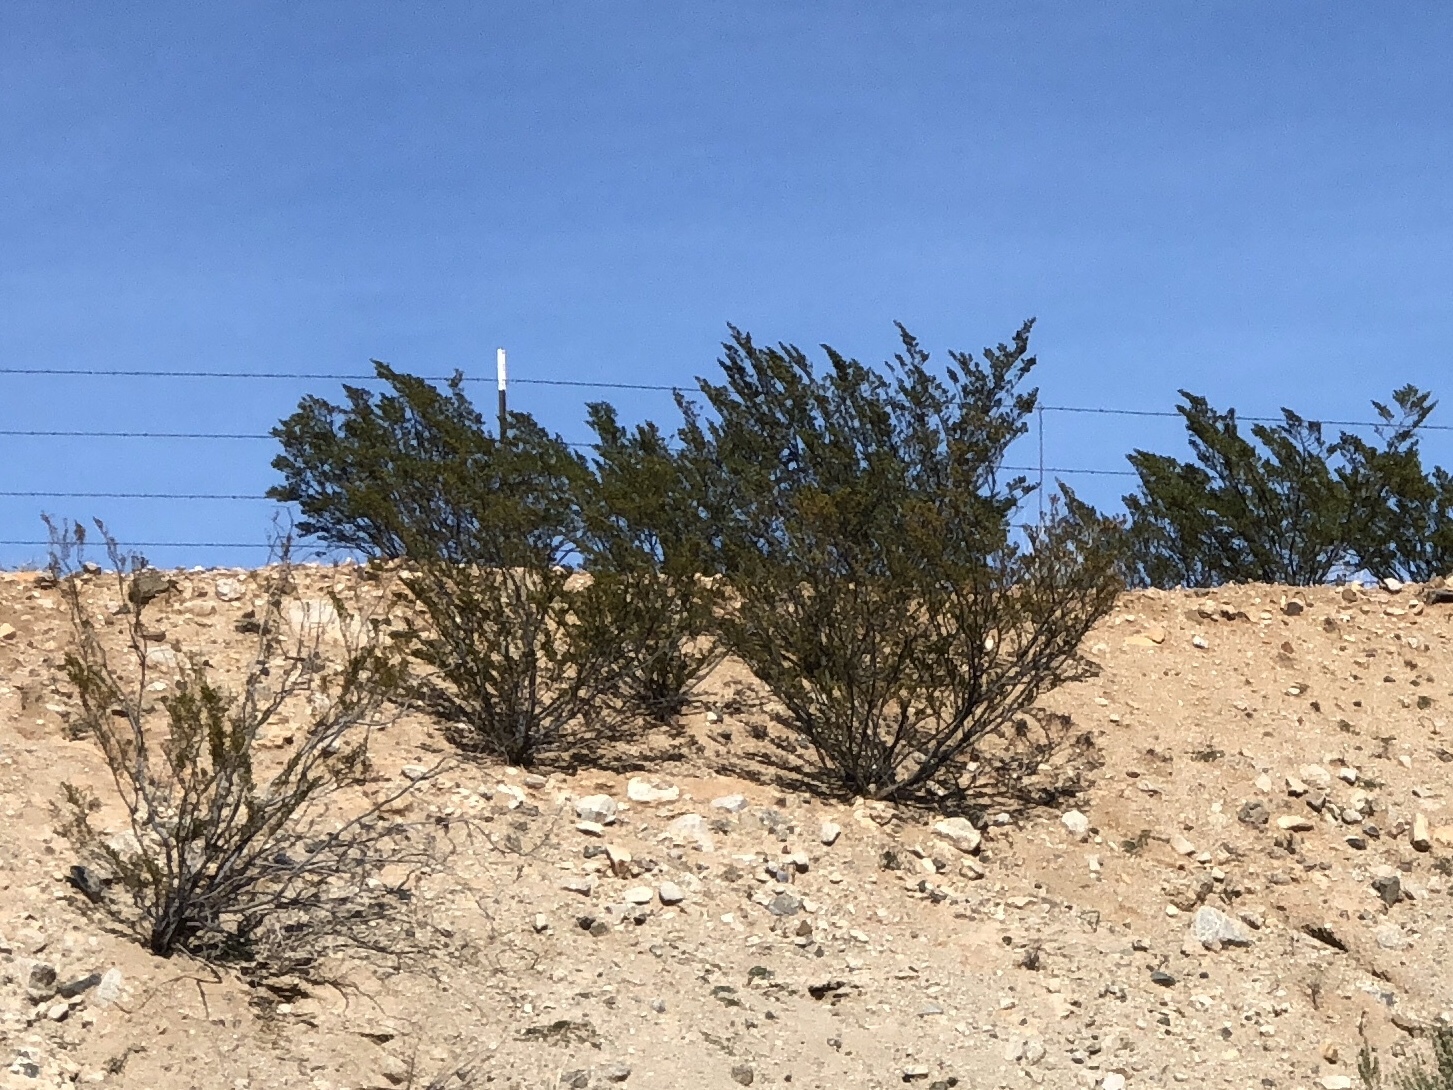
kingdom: Plantae
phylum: Tracheophyta
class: Magnoliopsida
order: Zygophyllales
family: Zygophyllaceae
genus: Larrea
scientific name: Larrea tridentata
